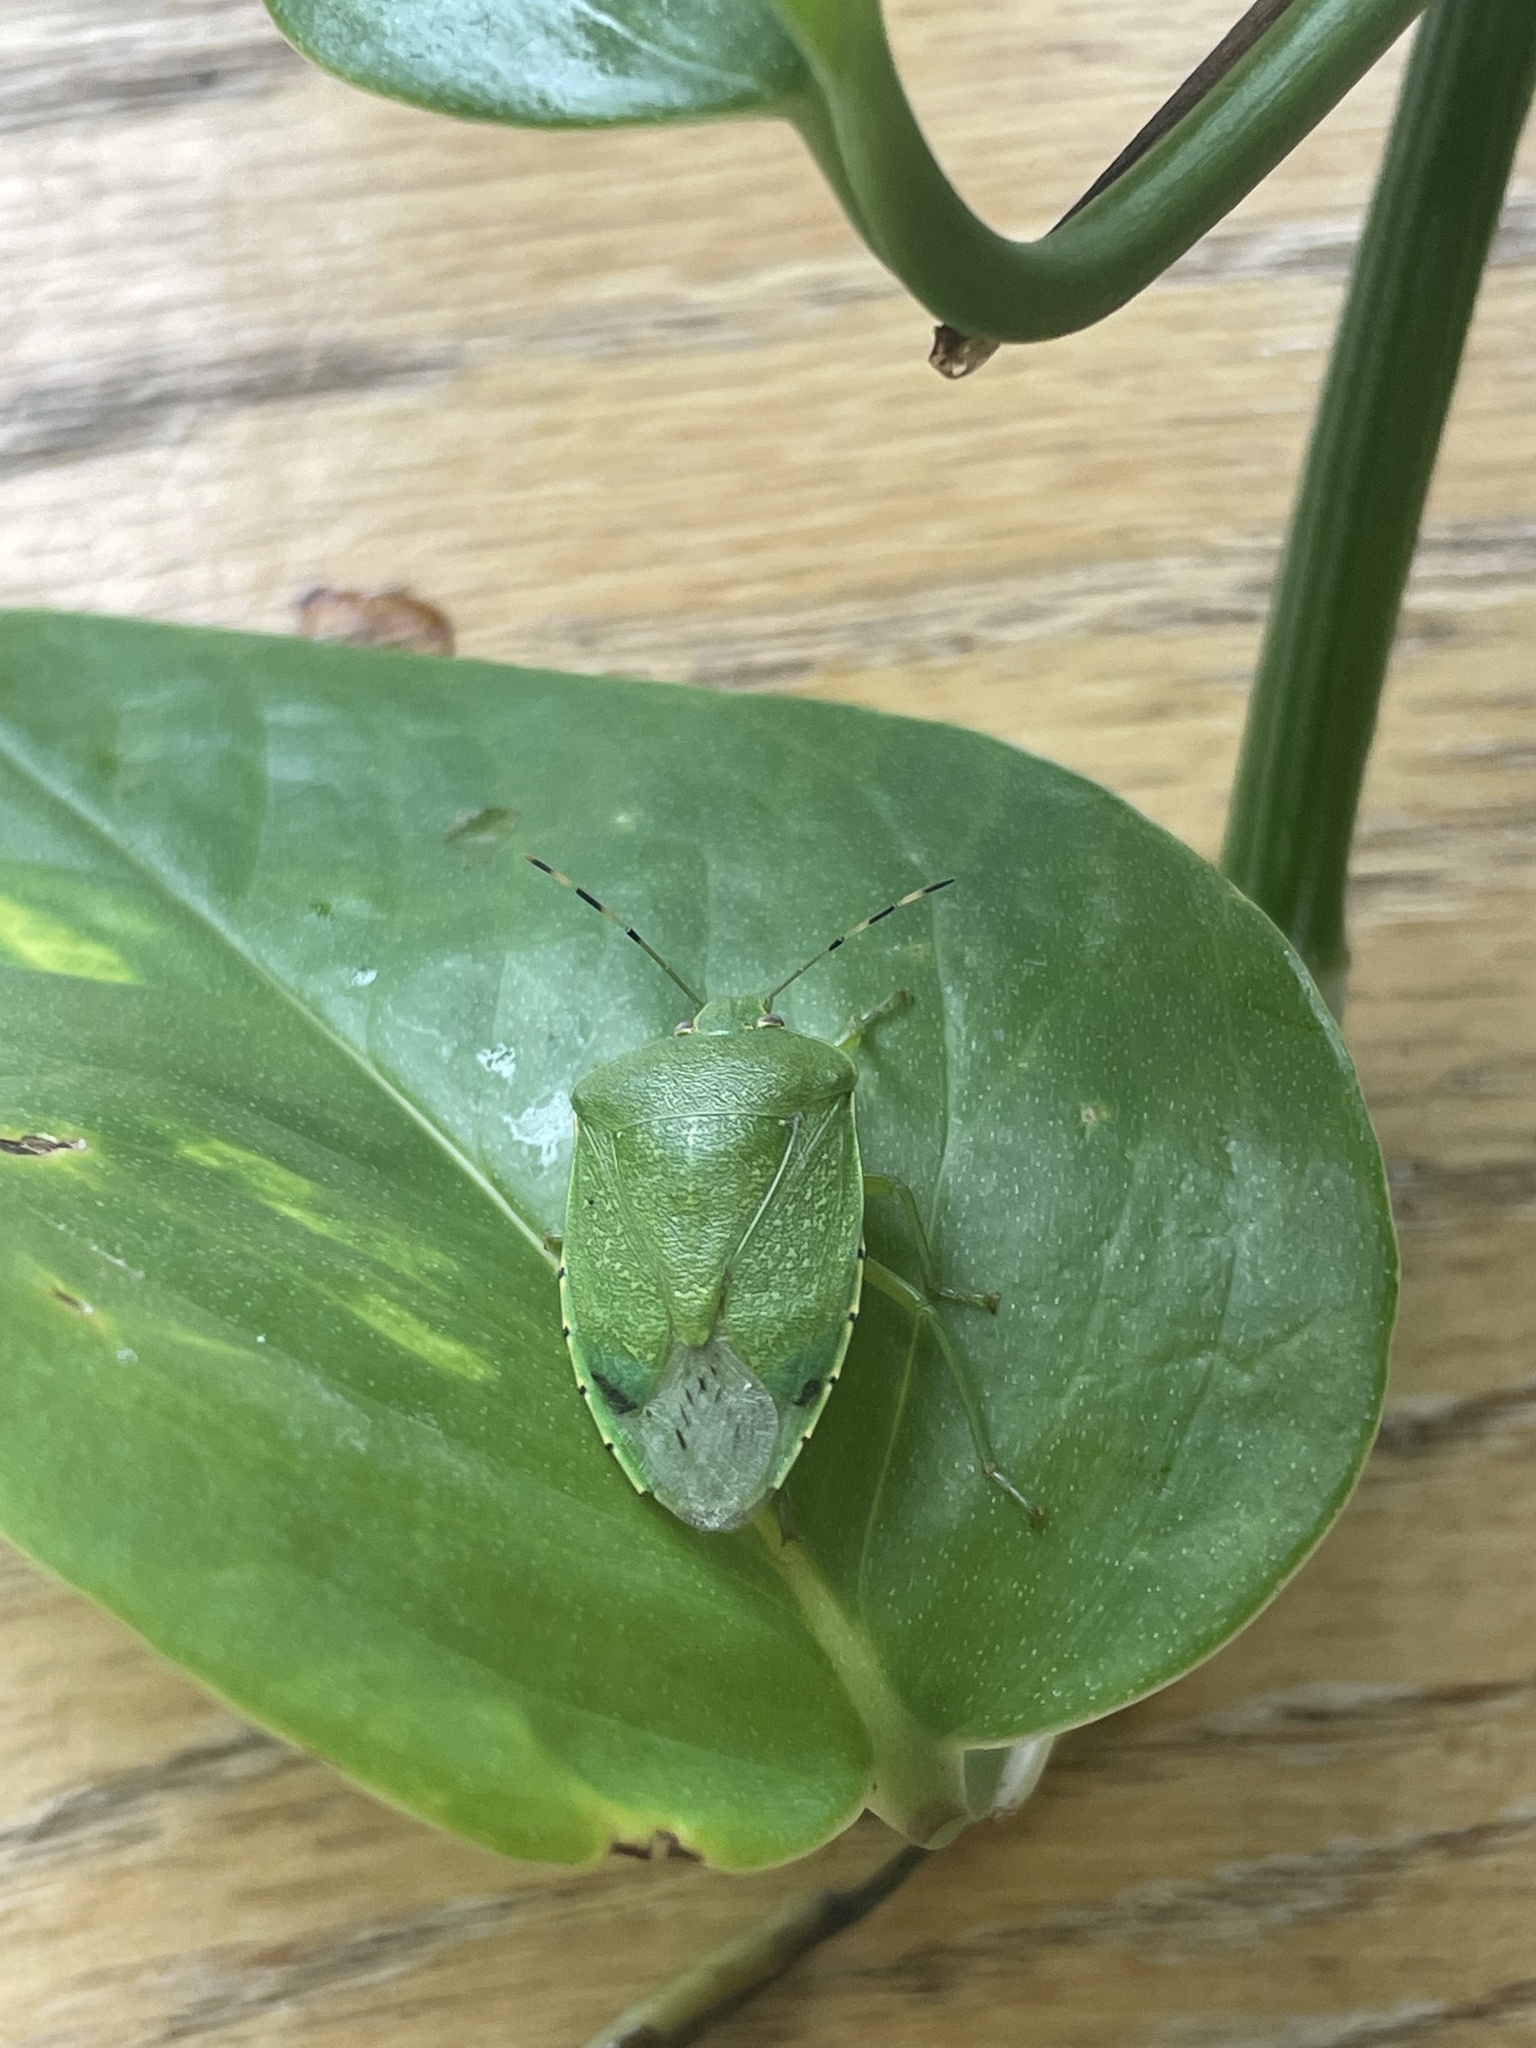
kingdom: Animalia
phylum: Arthropoda
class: Insecta
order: Hemiptera
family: Pentatomidae
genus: Chinavia
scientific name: Chinavia hilaris
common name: Green stink bug
